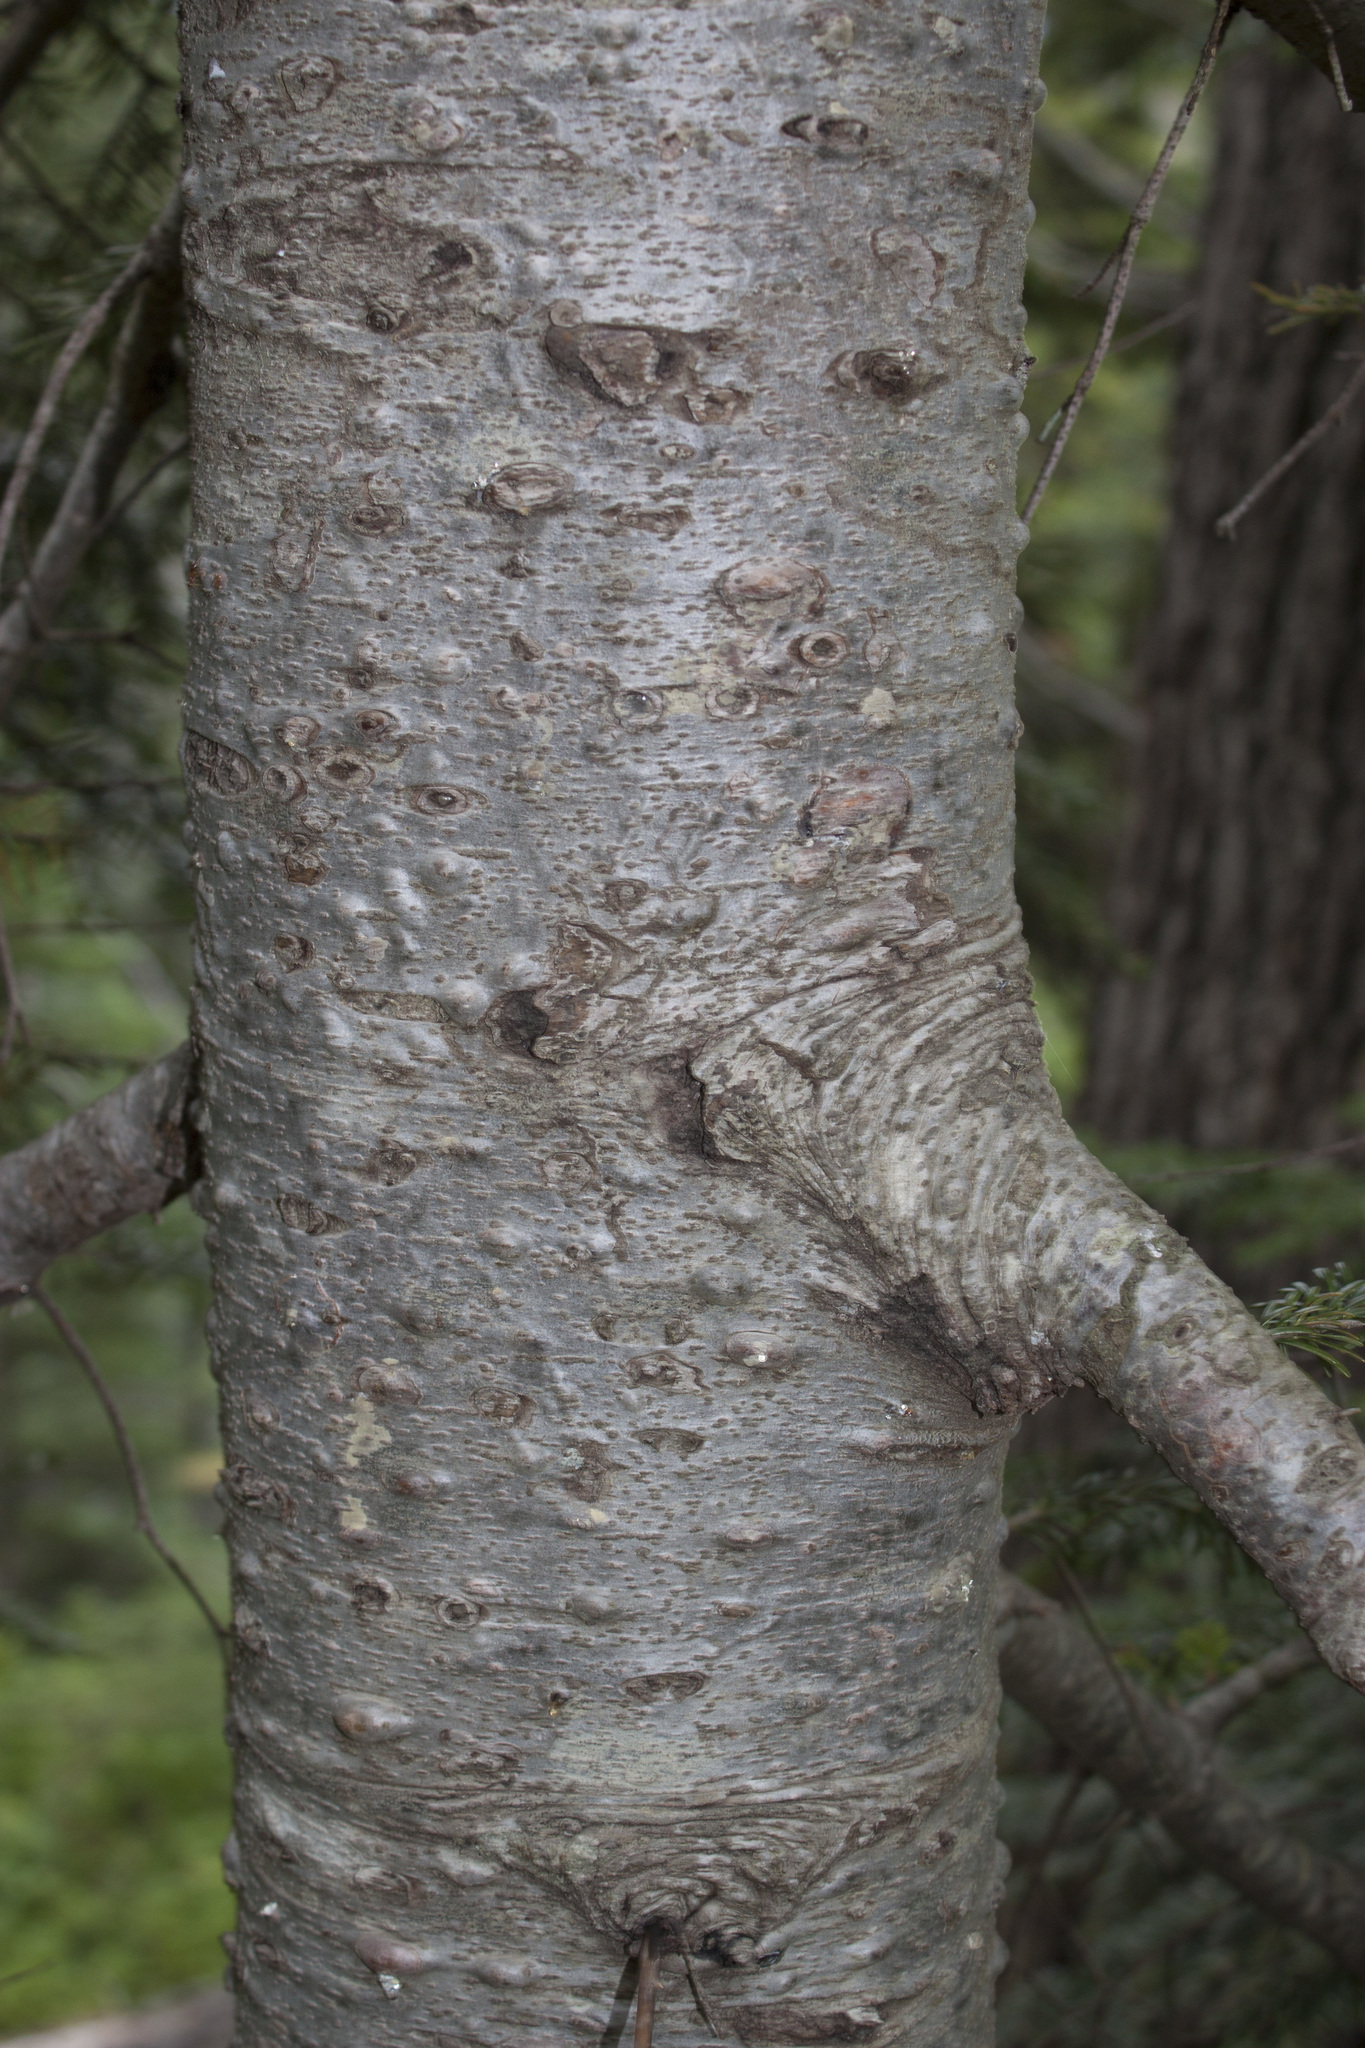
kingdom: Plantae
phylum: Tracheophyta
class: Pinopsida
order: Pinales
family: Pinaceae
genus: Abies
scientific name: Abies amabilis
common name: Pacific silver fir
